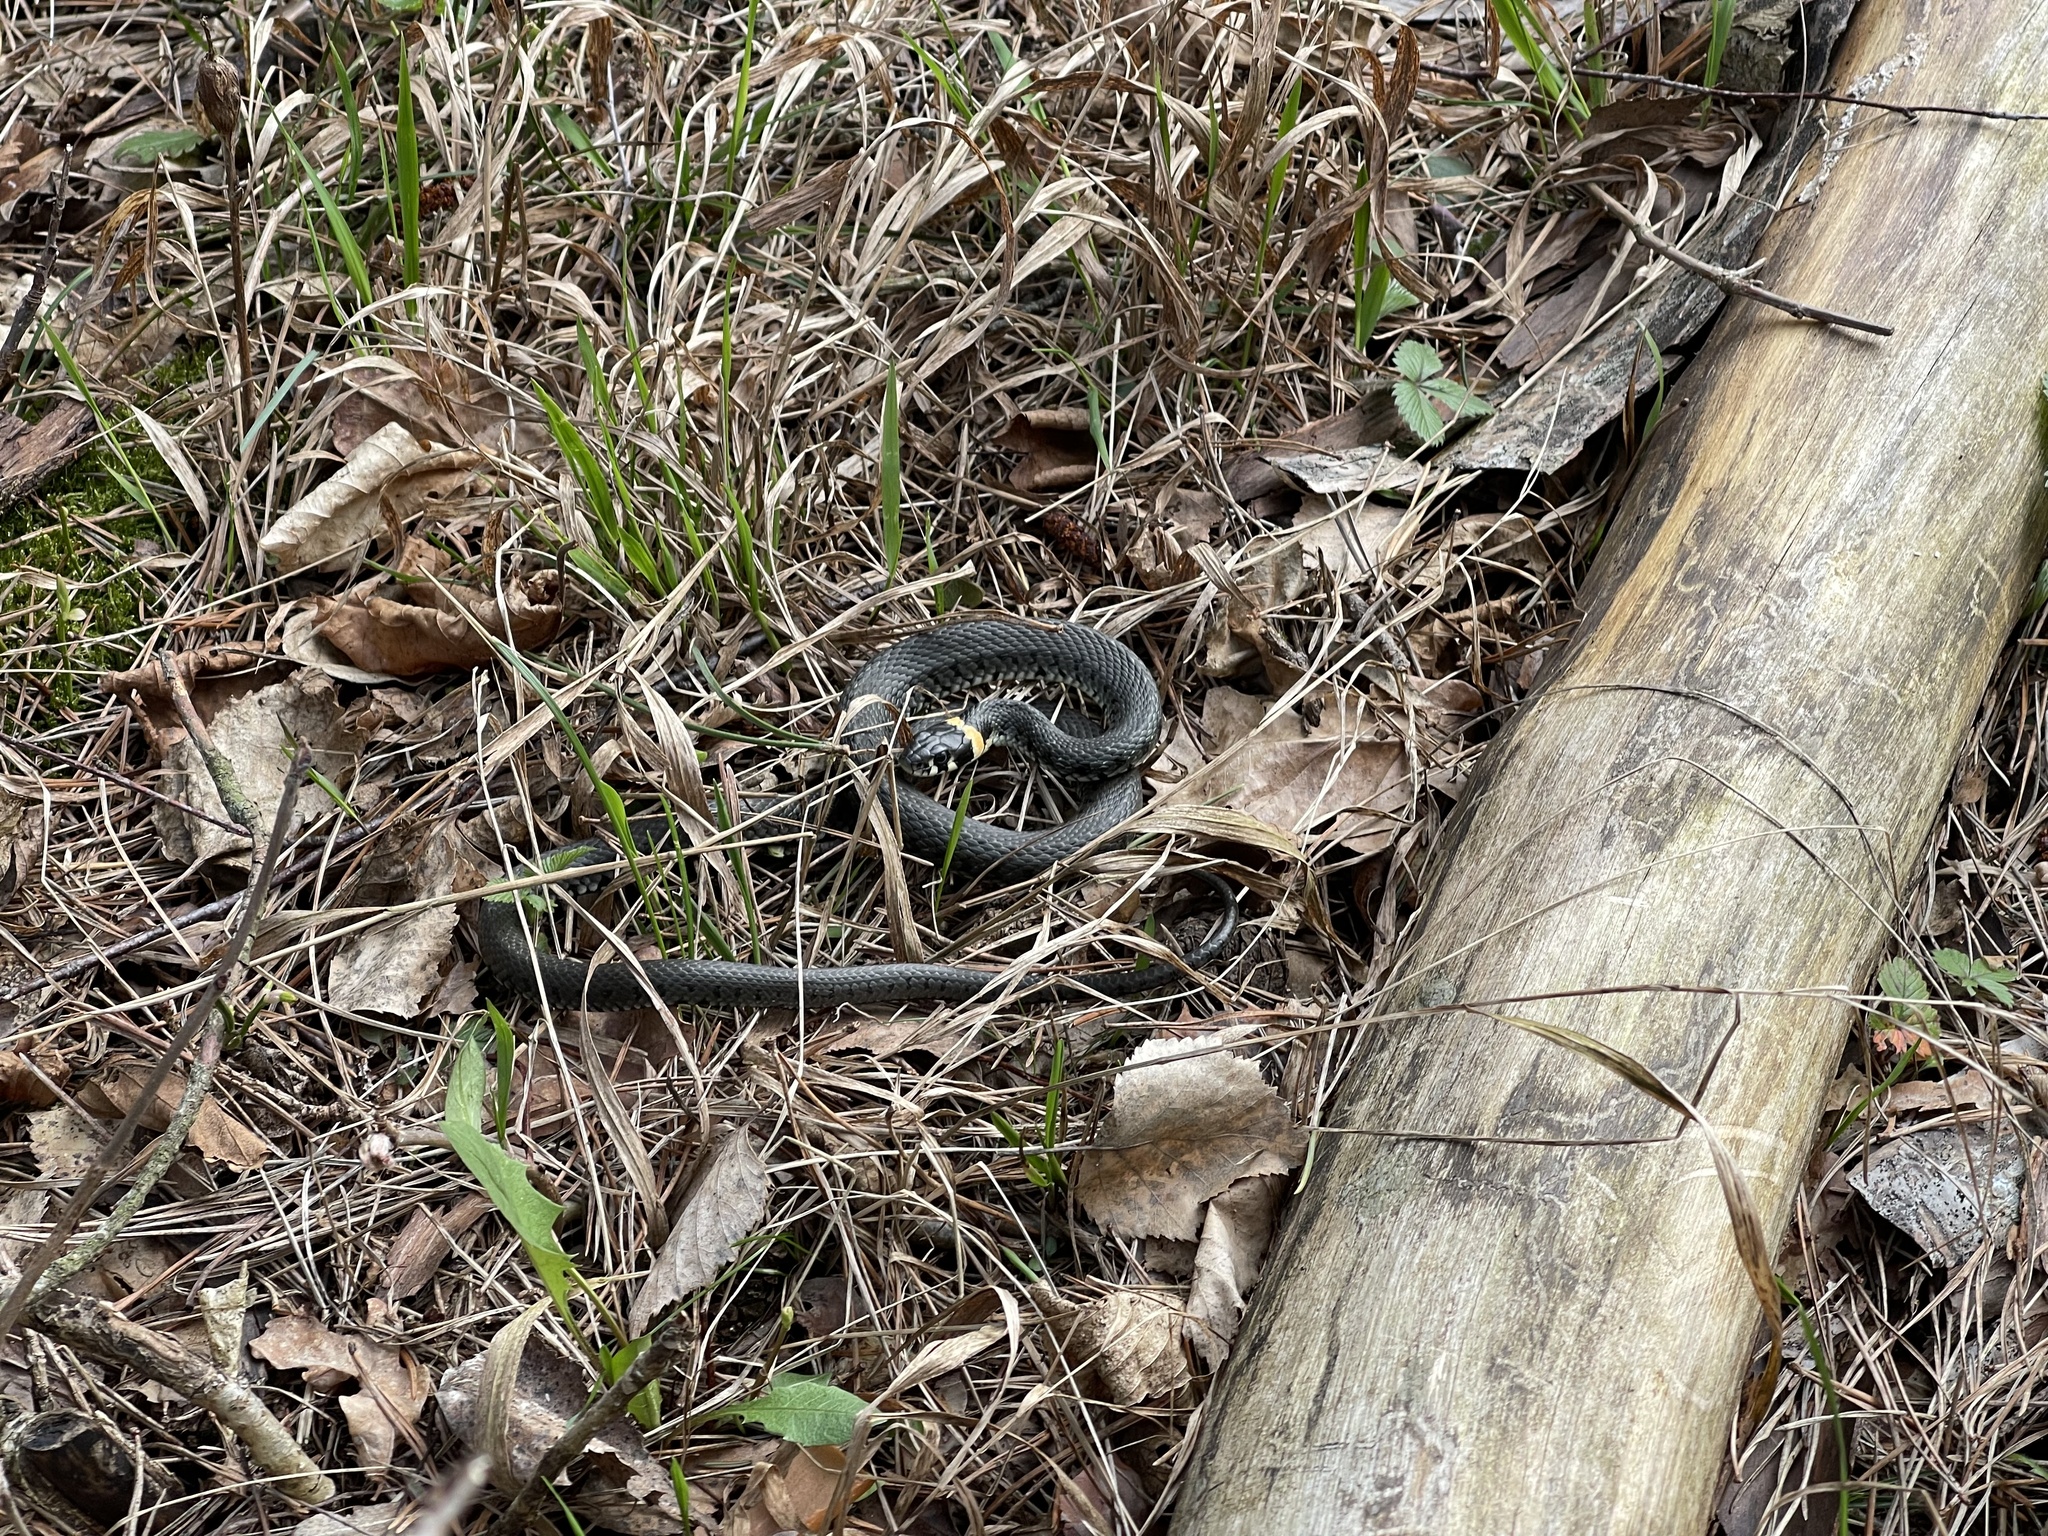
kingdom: Animalia
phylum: Chordata
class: Squamata
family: Colubridae
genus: Natrix
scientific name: Natrix natrix
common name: Grass snake
